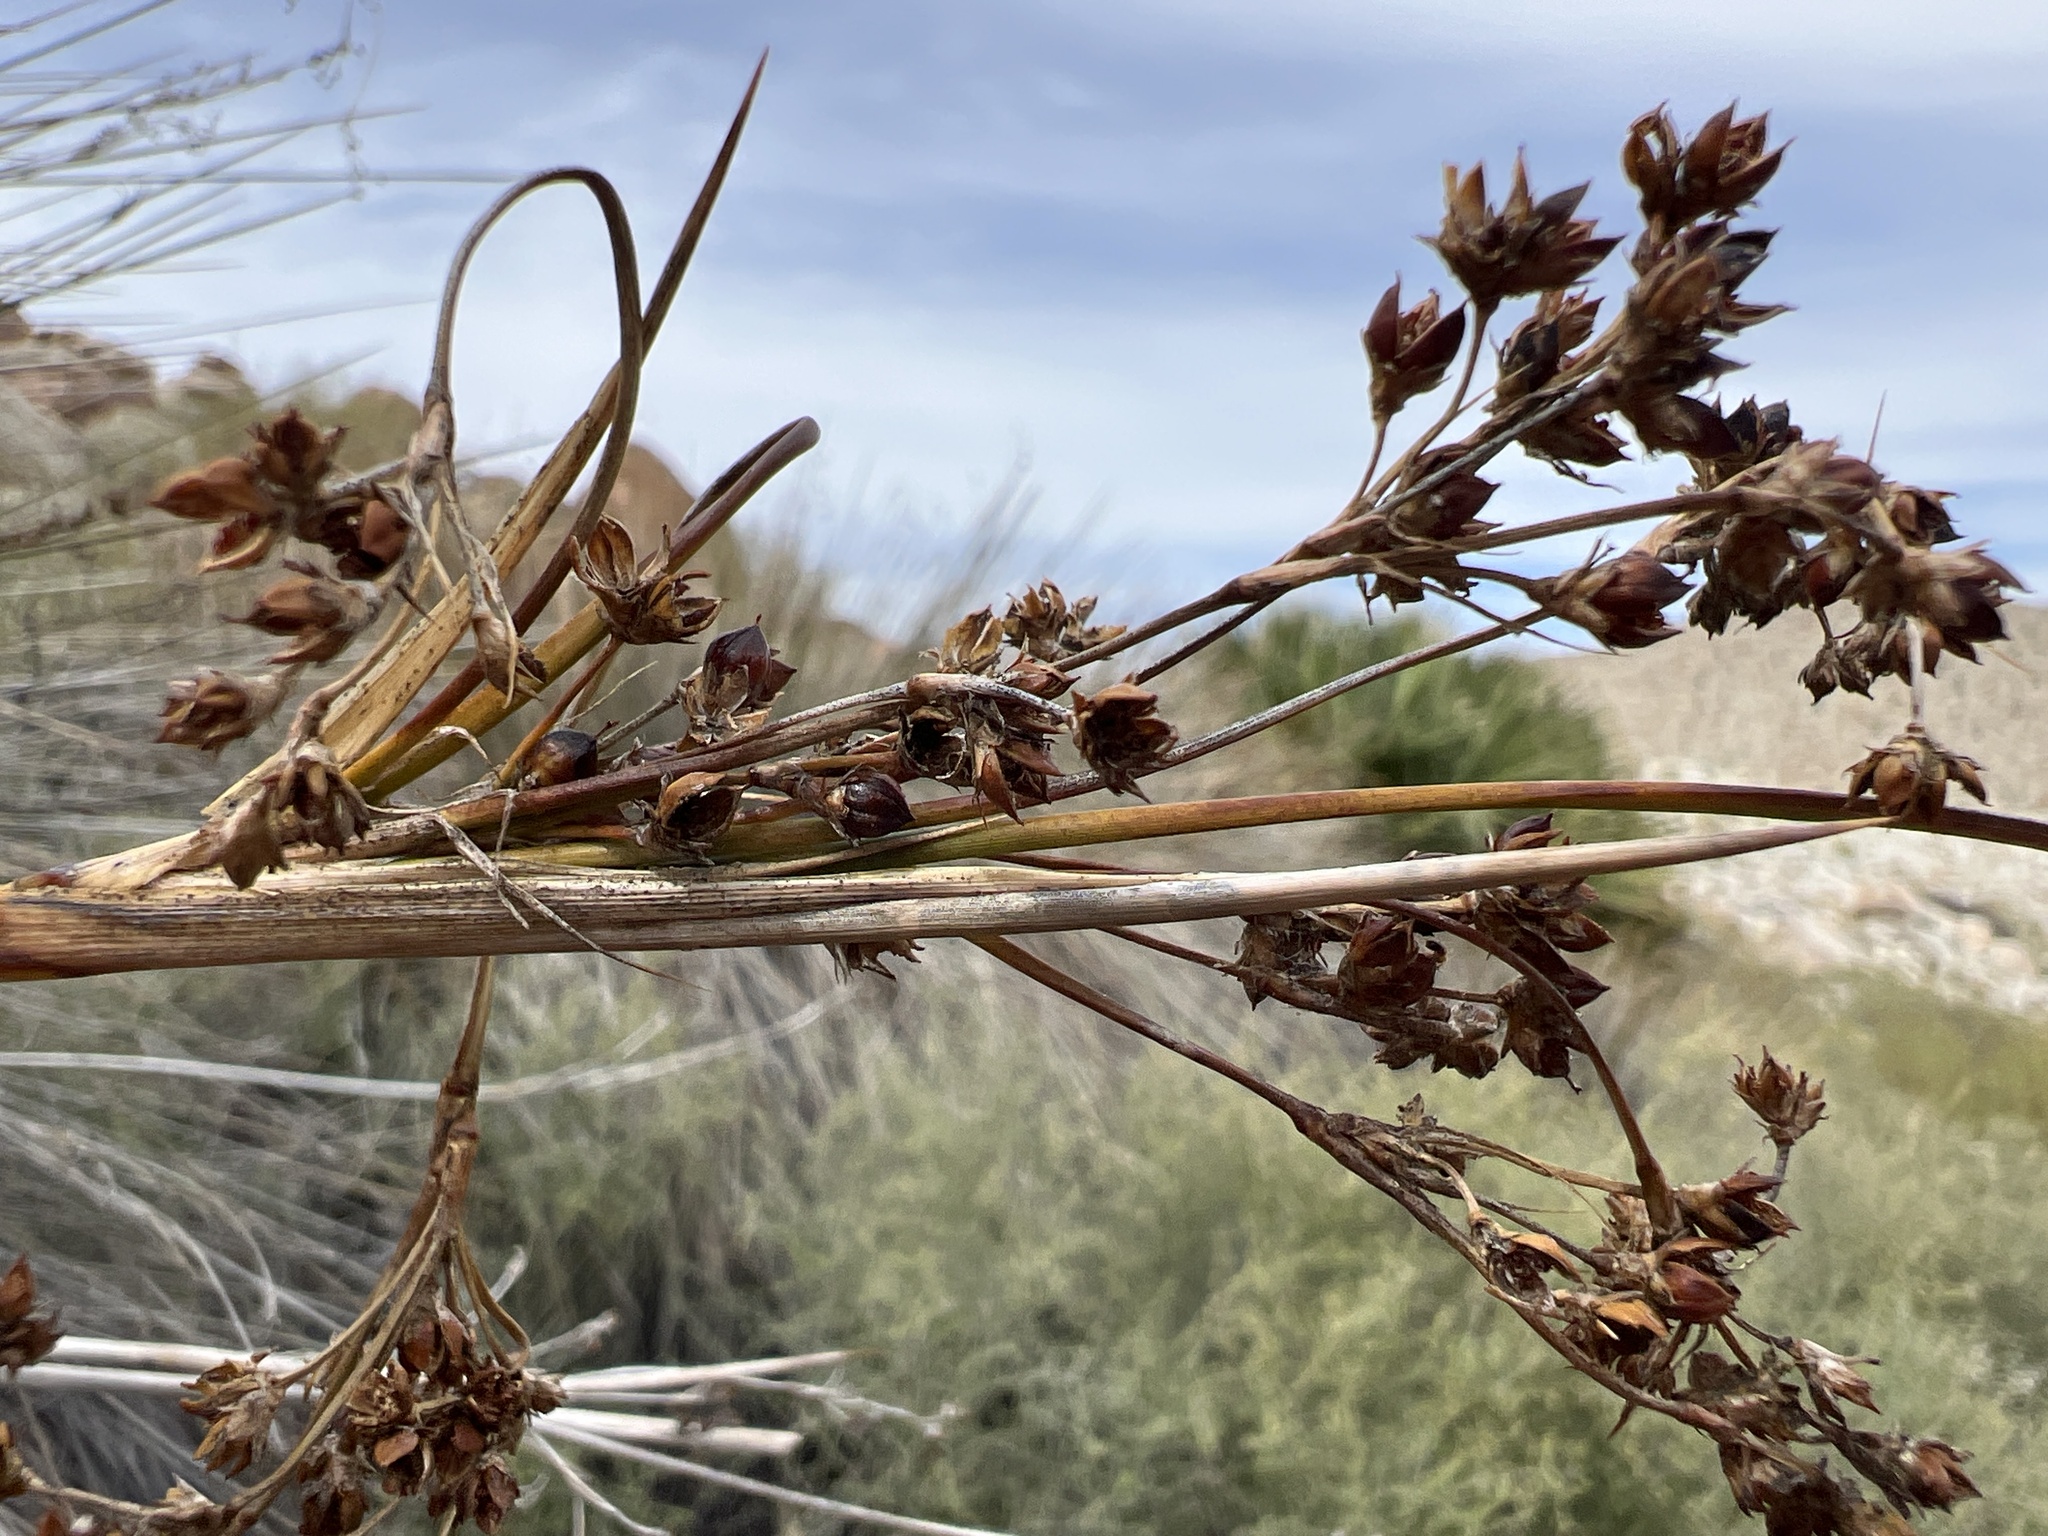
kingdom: Plantae
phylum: Tracheophyta
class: Liliopsida
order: Poales
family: Juncaceae
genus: Juncus
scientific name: Juncus acutus
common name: Sharp rush
